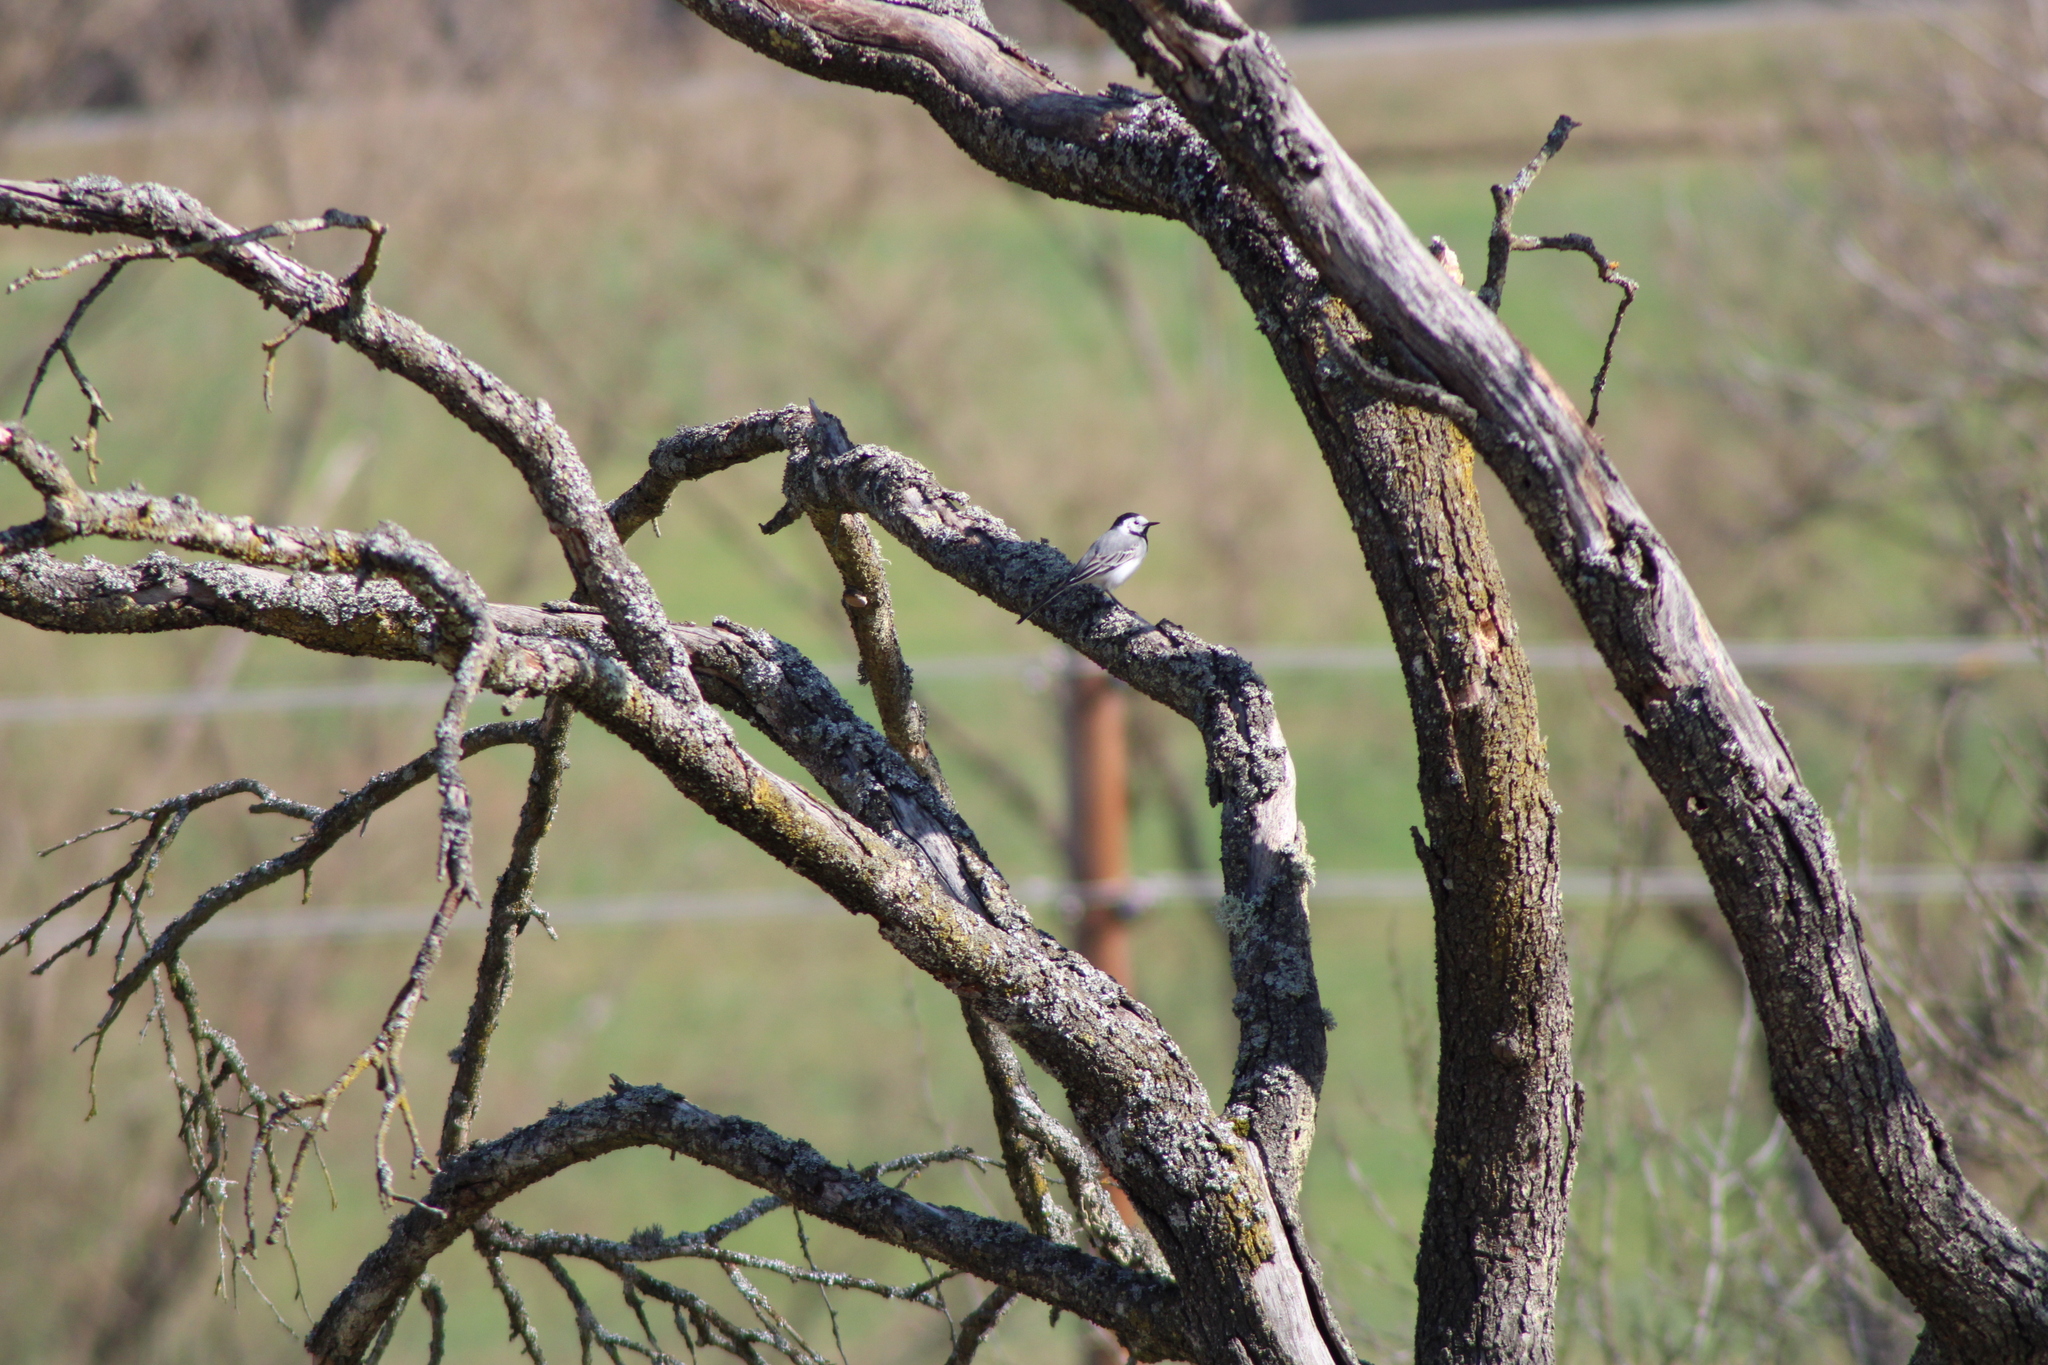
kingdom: Animalia
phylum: Chordata
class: Aves
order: Passeriformes
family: Motacillidae
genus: Motacilla
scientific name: Motacilla alba
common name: White wagtail
